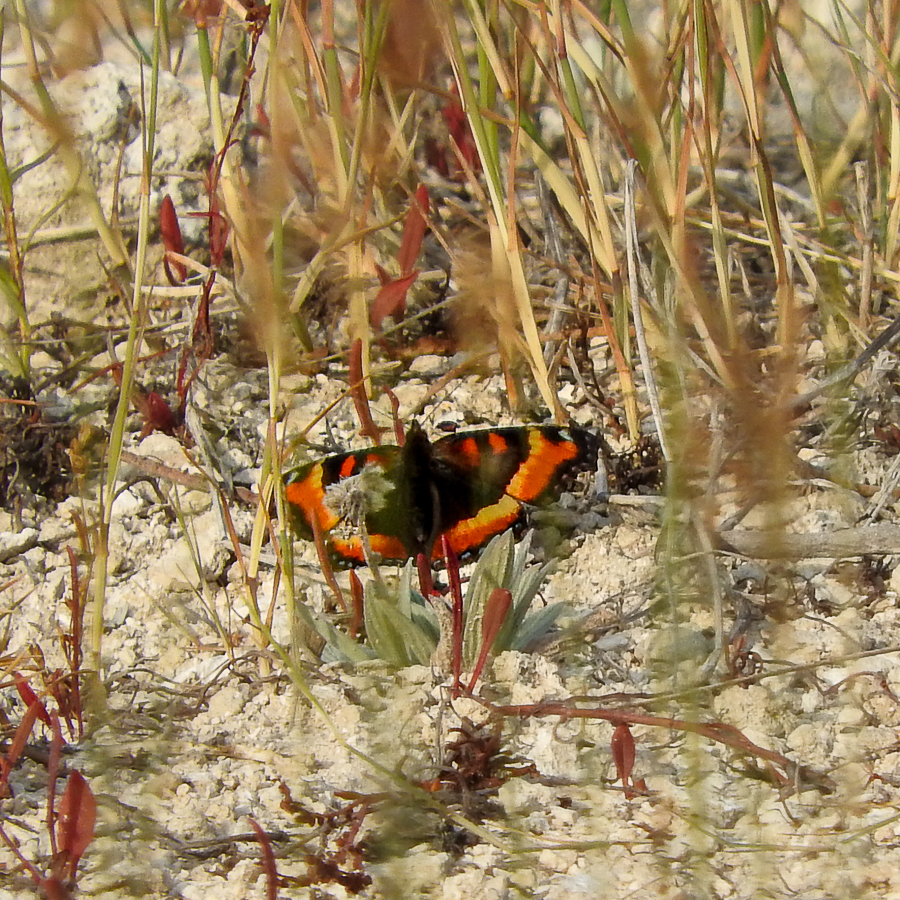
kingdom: Animalia
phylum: Arthropoda
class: Insecta
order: Lepidoptera
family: Nymphalidae
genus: Aglais
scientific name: Aglais milberti
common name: Milbert's tortoiseshell
